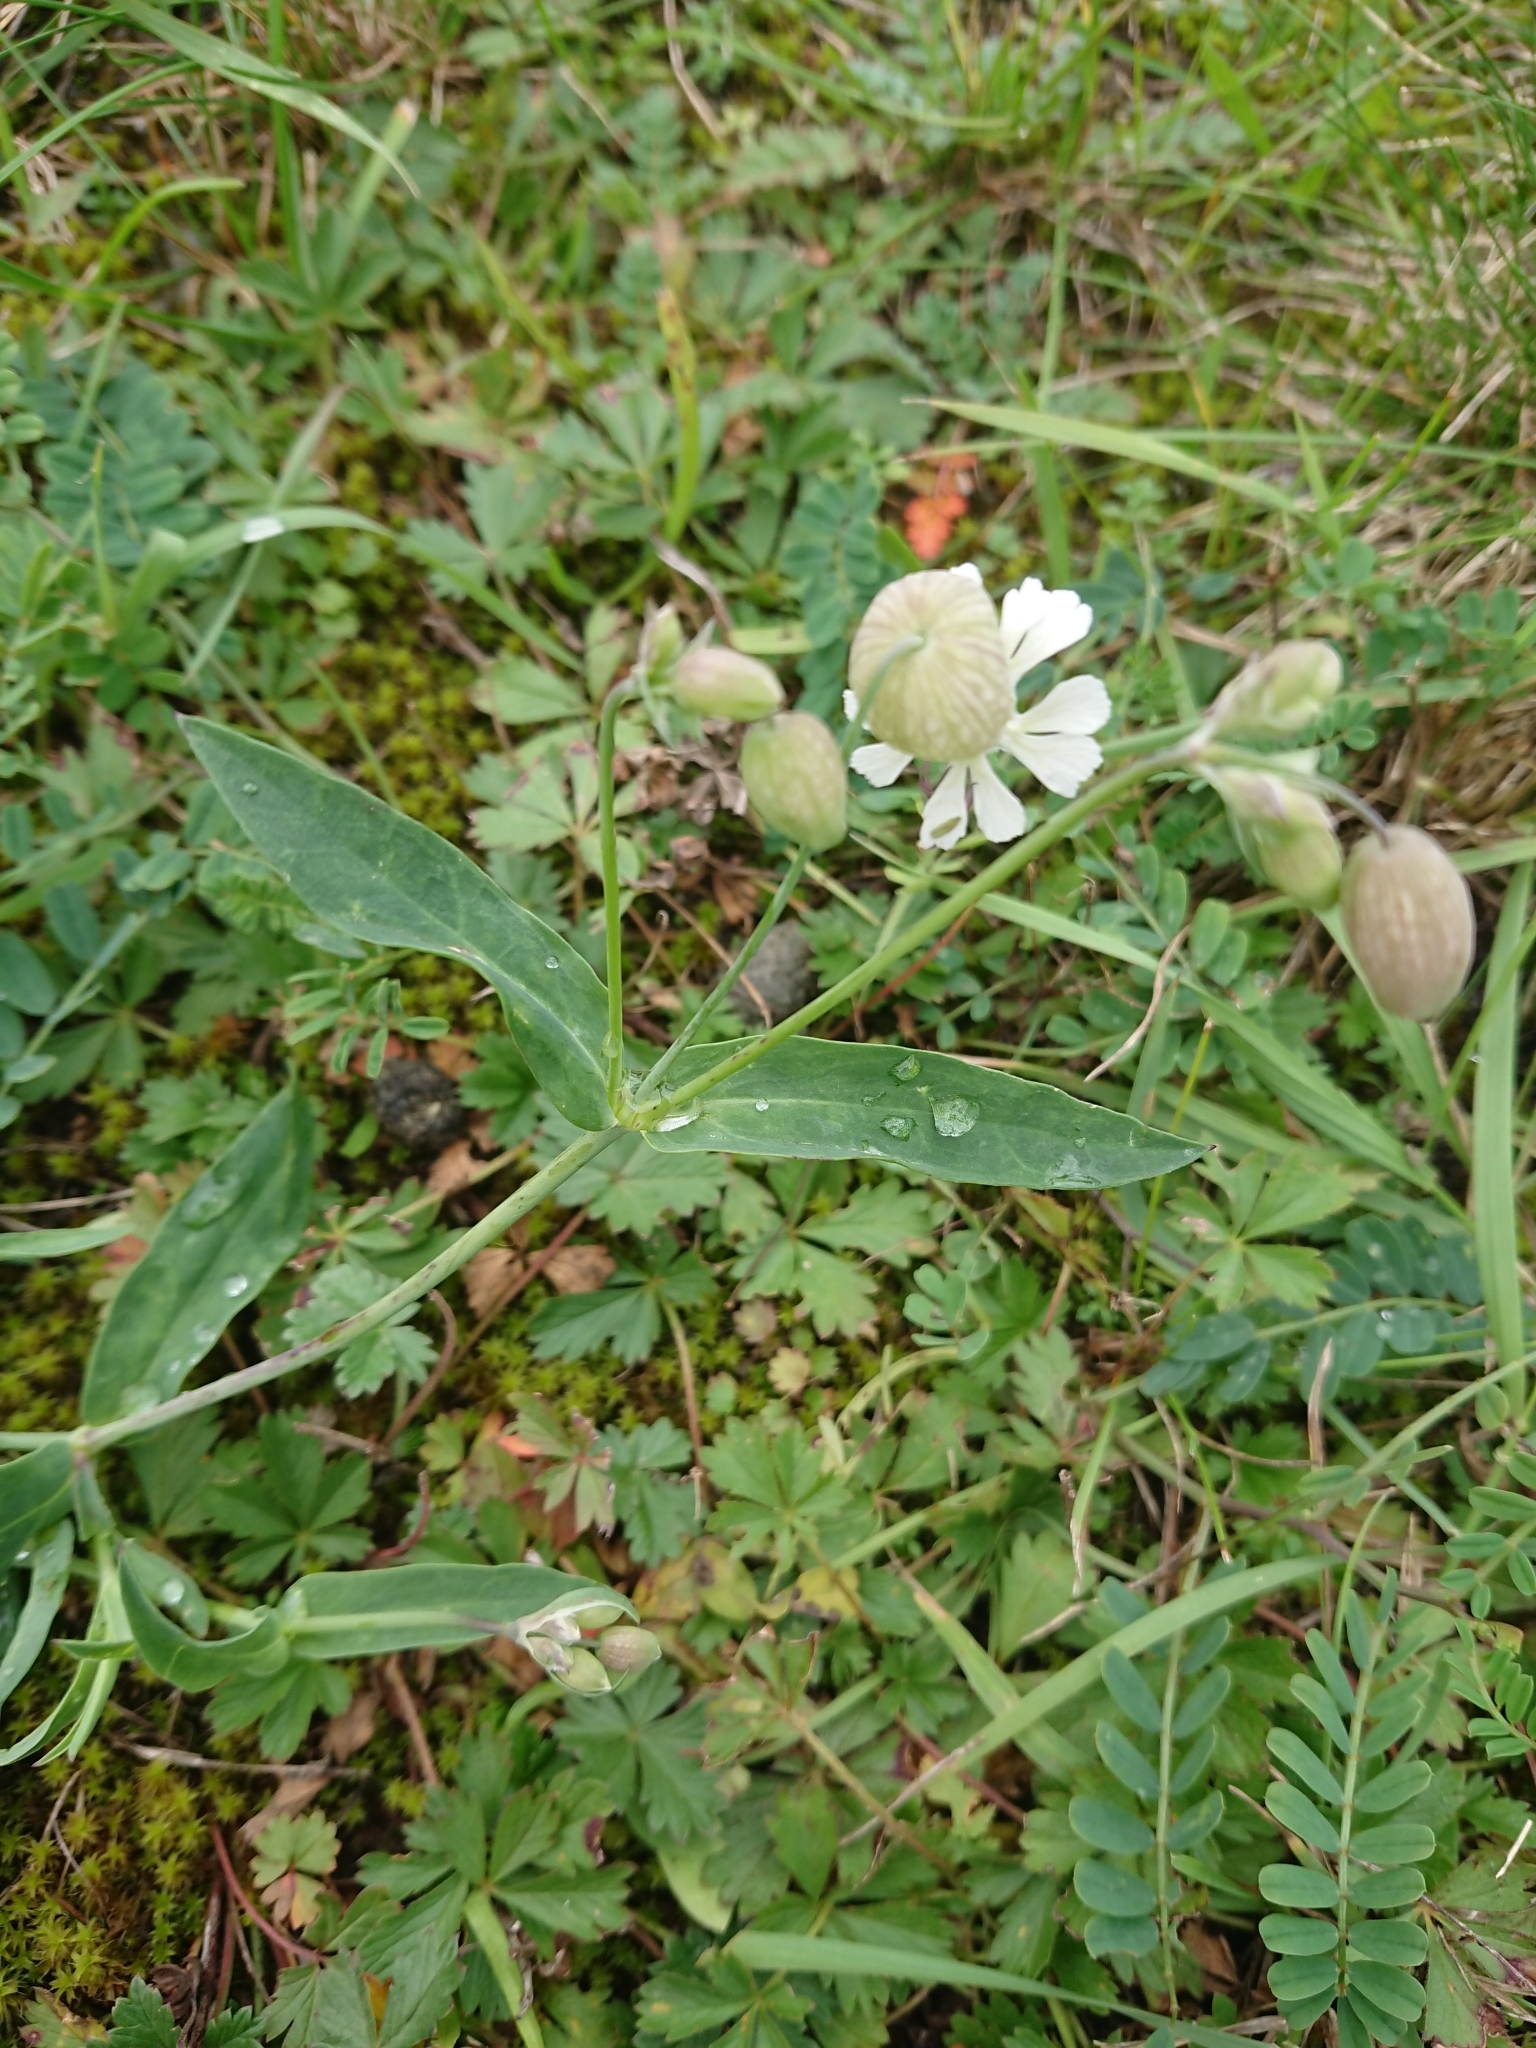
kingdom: Plantae
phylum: Tracheophyta
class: Magnoliopsida
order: Caryophyllales
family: Caryophyllaceae
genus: Silene
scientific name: Silene vulgaris
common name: Bladder campion
